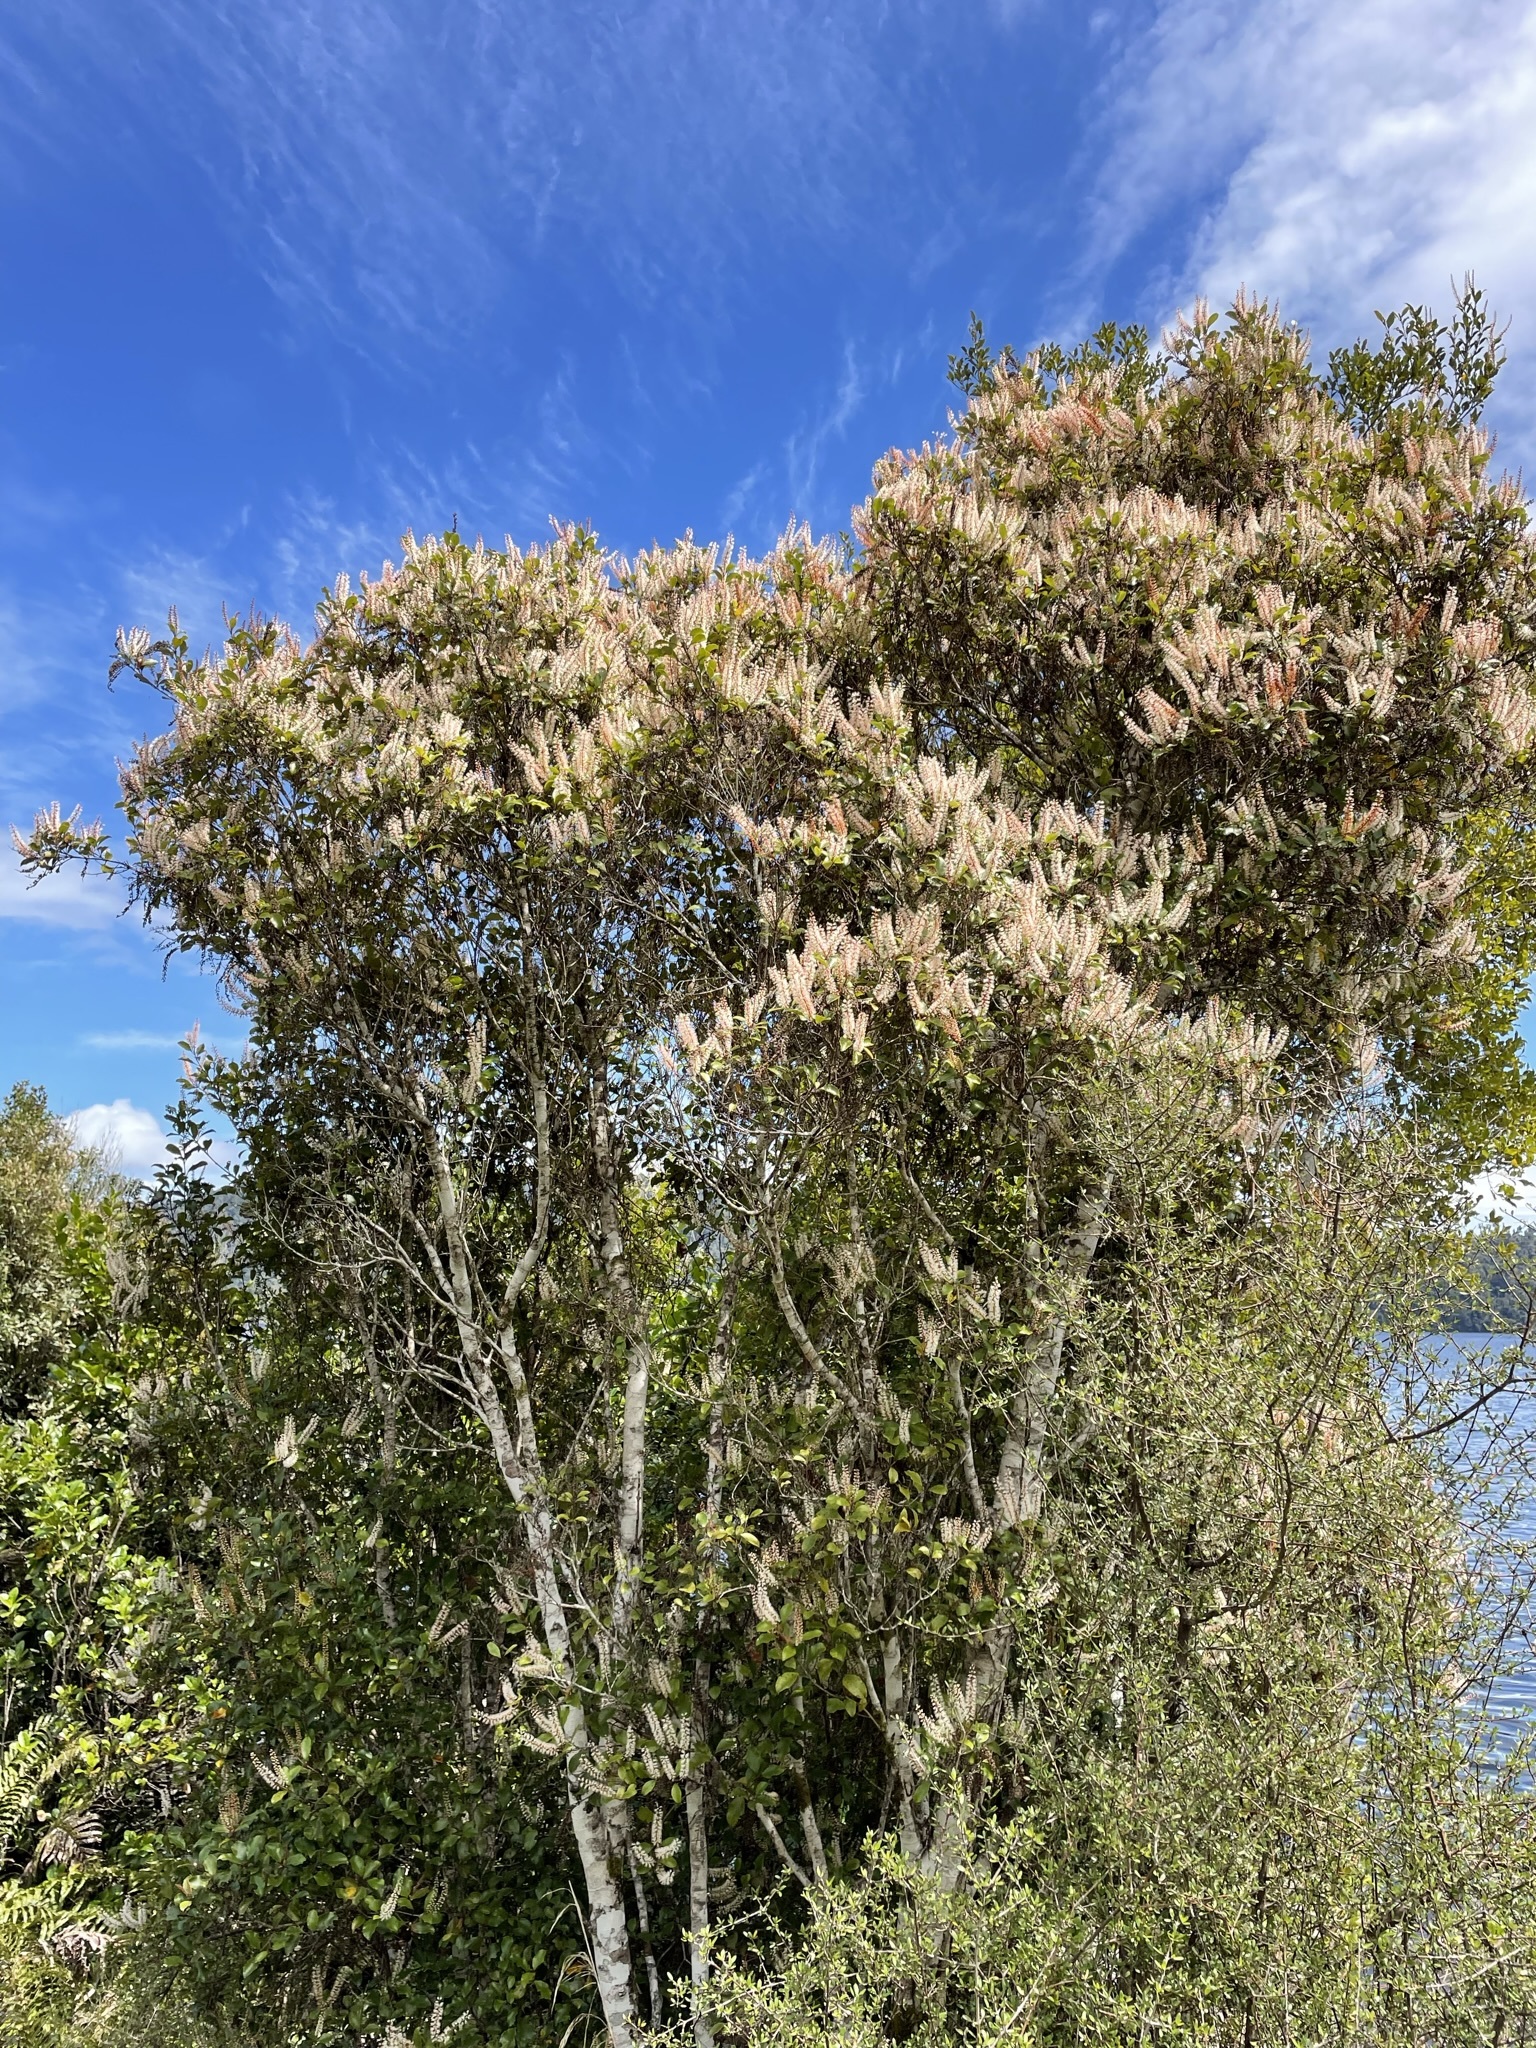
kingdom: Plantae
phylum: Tracheophyta
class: Magnoliopsida
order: Oxalidales
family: Cunoniaceae
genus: Pterophylla
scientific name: Pterophylla racemosa
